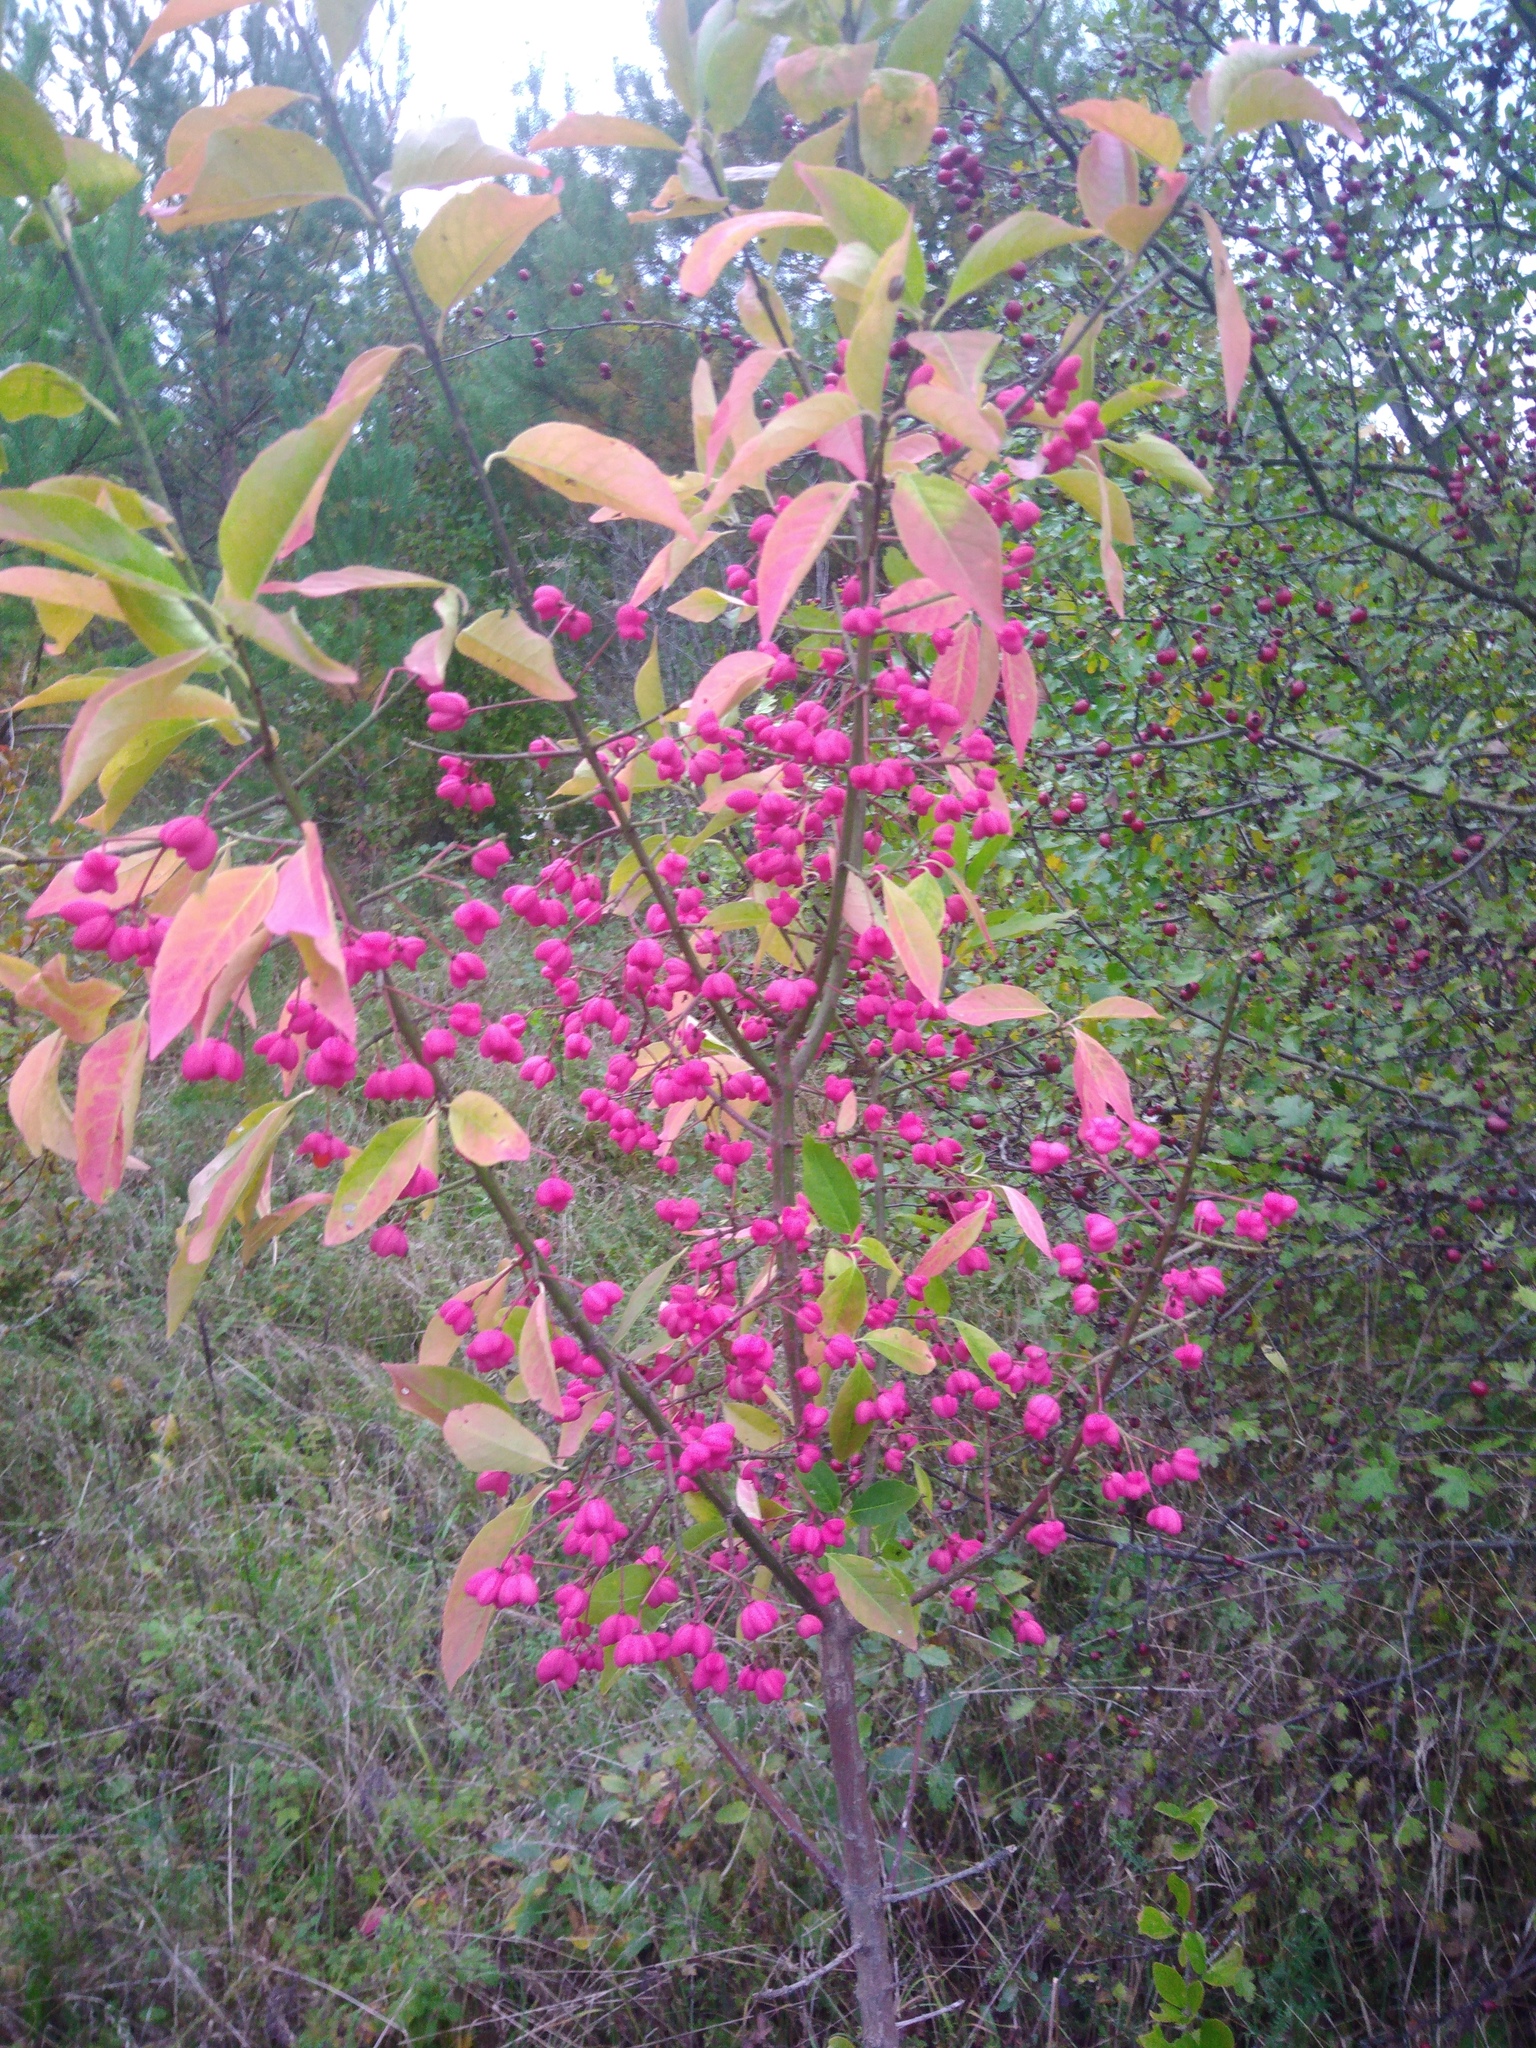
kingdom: Plantae
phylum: Tracheophyta
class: Magnoliopsida
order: Celastrales
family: Celastraceae
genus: Euonymus
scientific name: Euonymus europaeus
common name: Spindle
